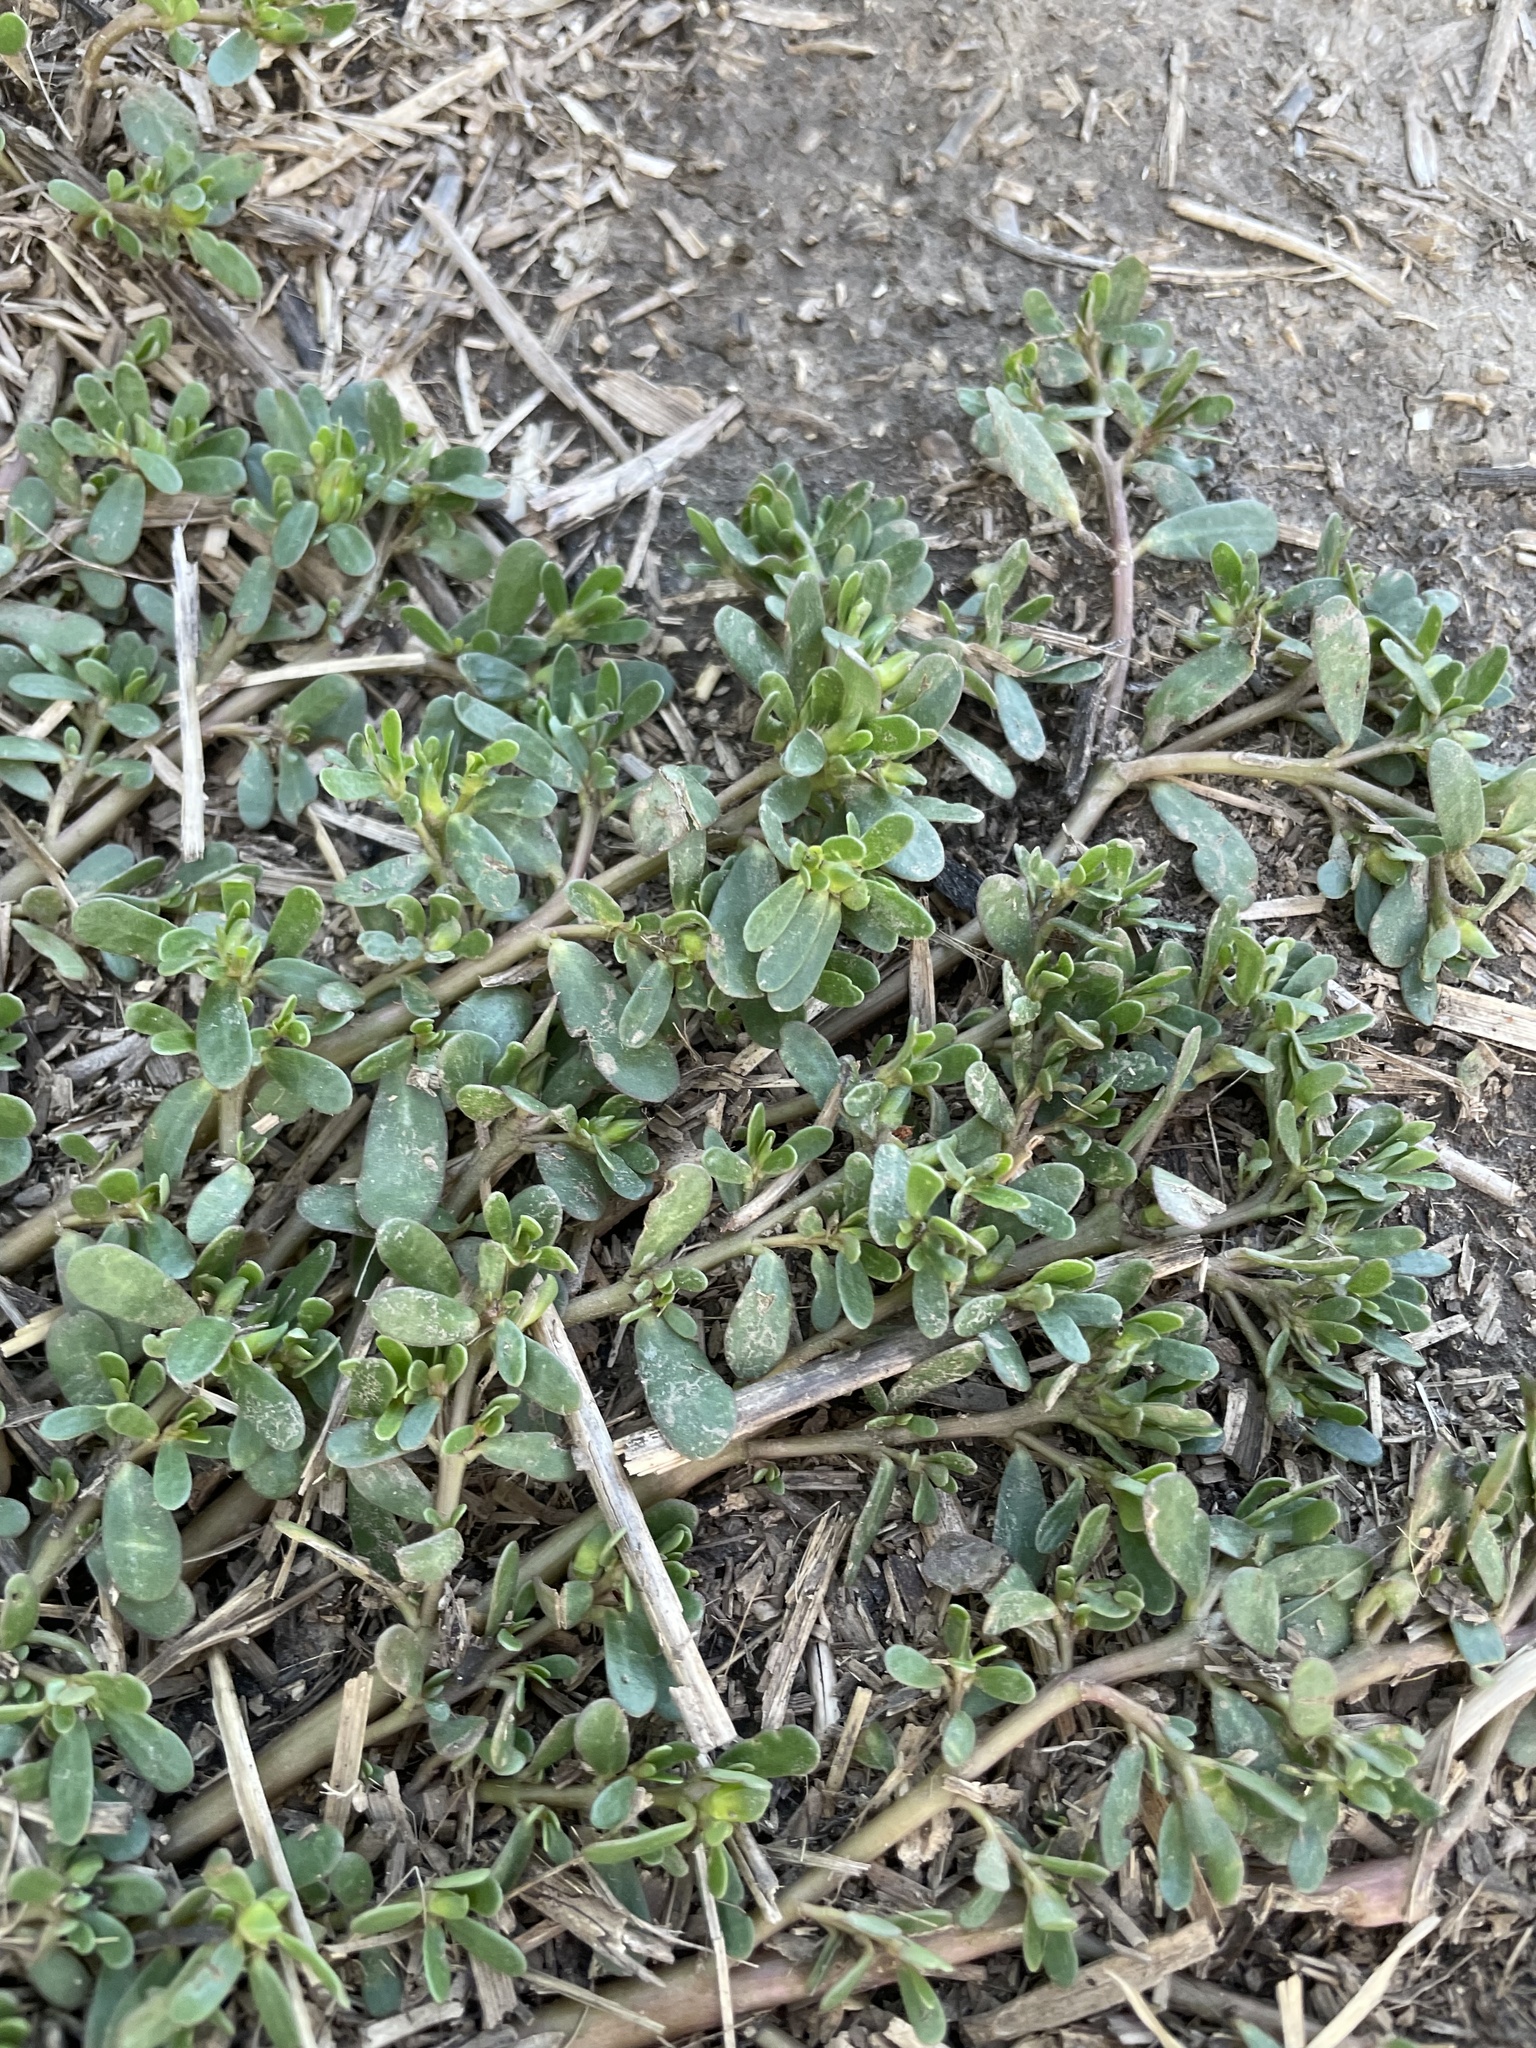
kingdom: Plantae
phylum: Tracheophyta
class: Magnoliopsida
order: Caryophyllales
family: Portulacaceae
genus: Portulaca
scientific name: Portulaca oleracea
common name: Common purslane
